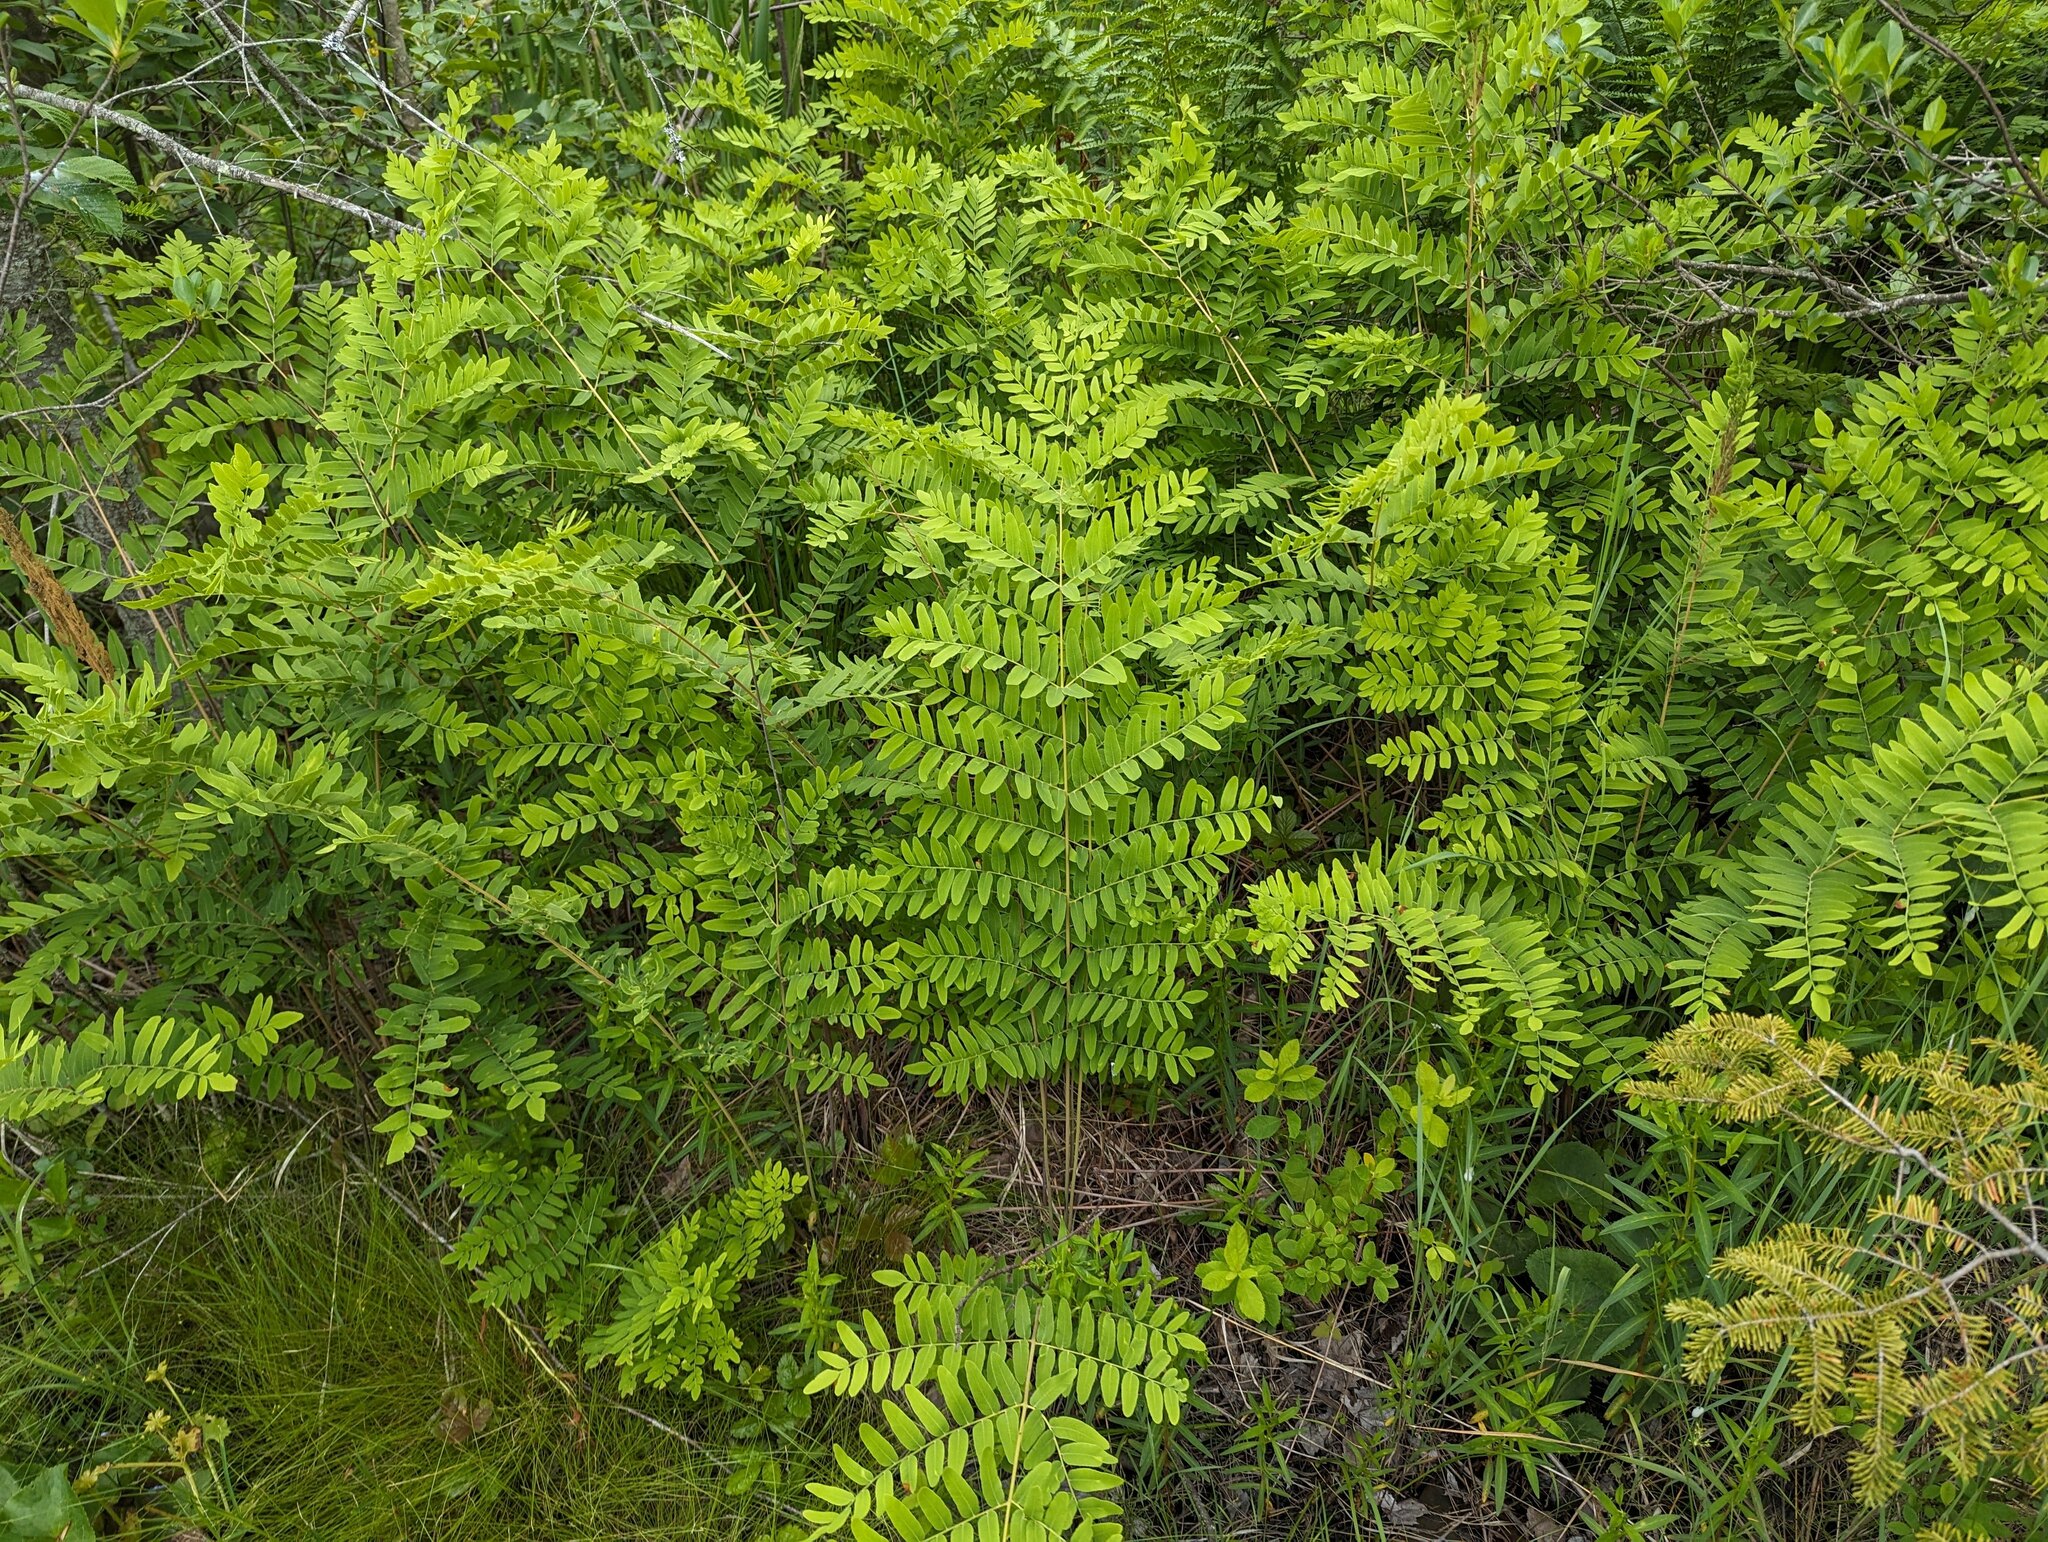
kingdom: Plantae
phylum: Tracheophyta
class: Polypodiopsida
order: Osmundales
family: Osmundaceae
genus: Osmunda
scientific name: Osmunda spectabilis
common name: American royal fern
